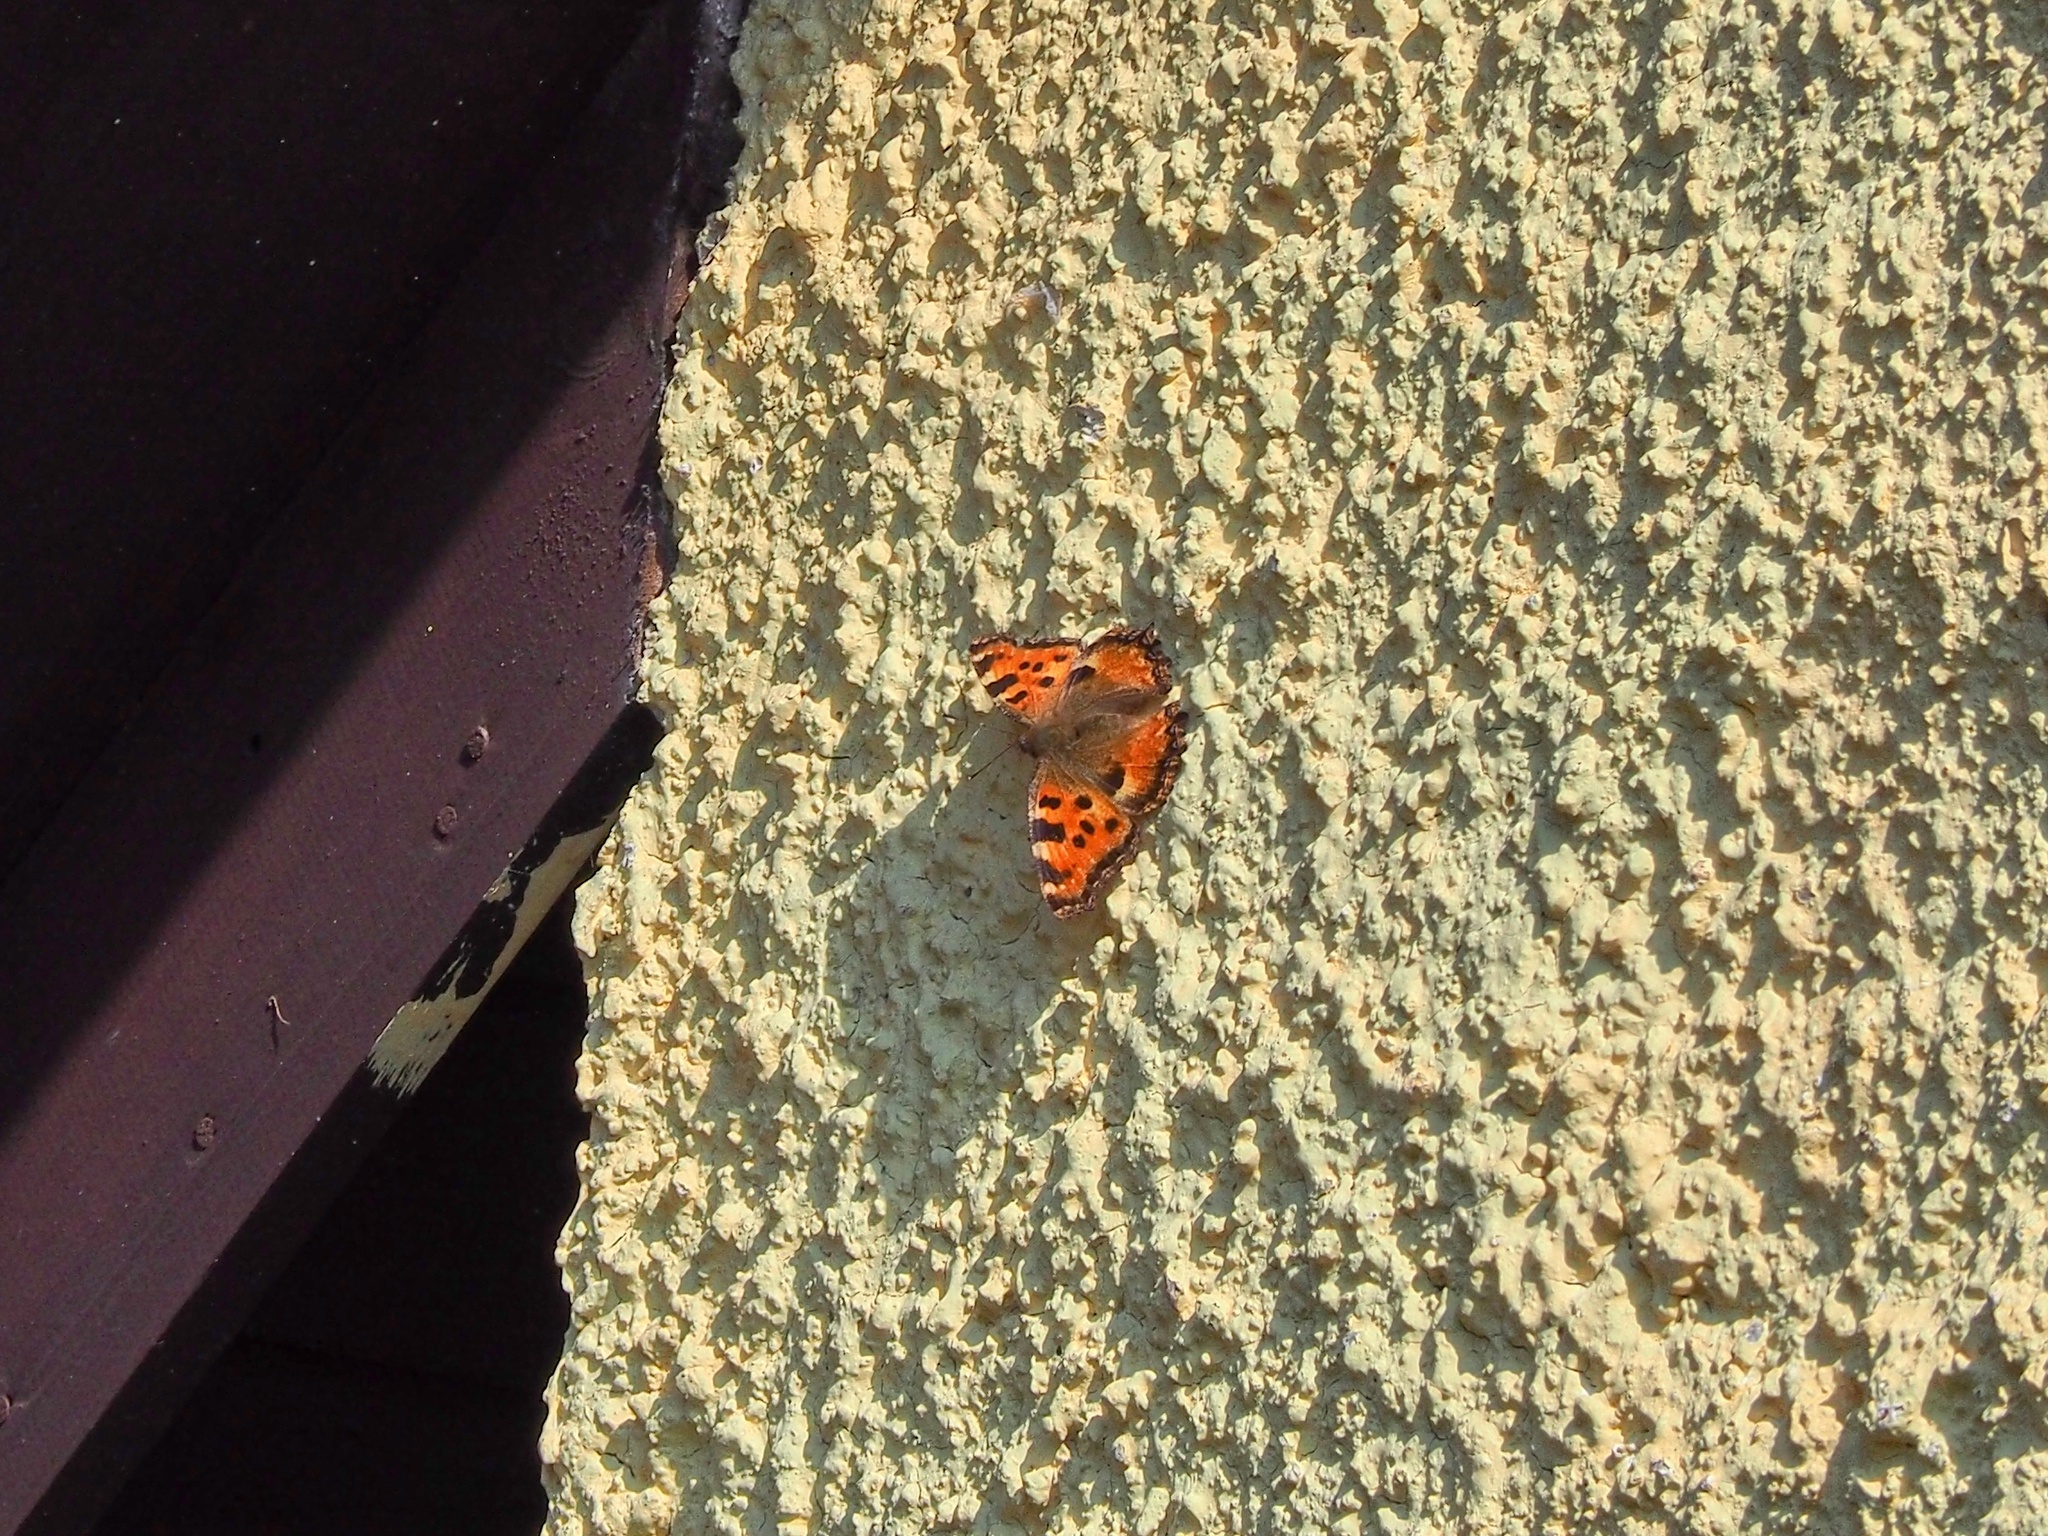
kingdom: Animalia
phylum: Arthropoda
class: Insecta
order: Lepidoptera
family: Nymphalidae
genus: Nymphalis
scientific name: Nymphalis polychloros
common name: Large tortoiseshell
